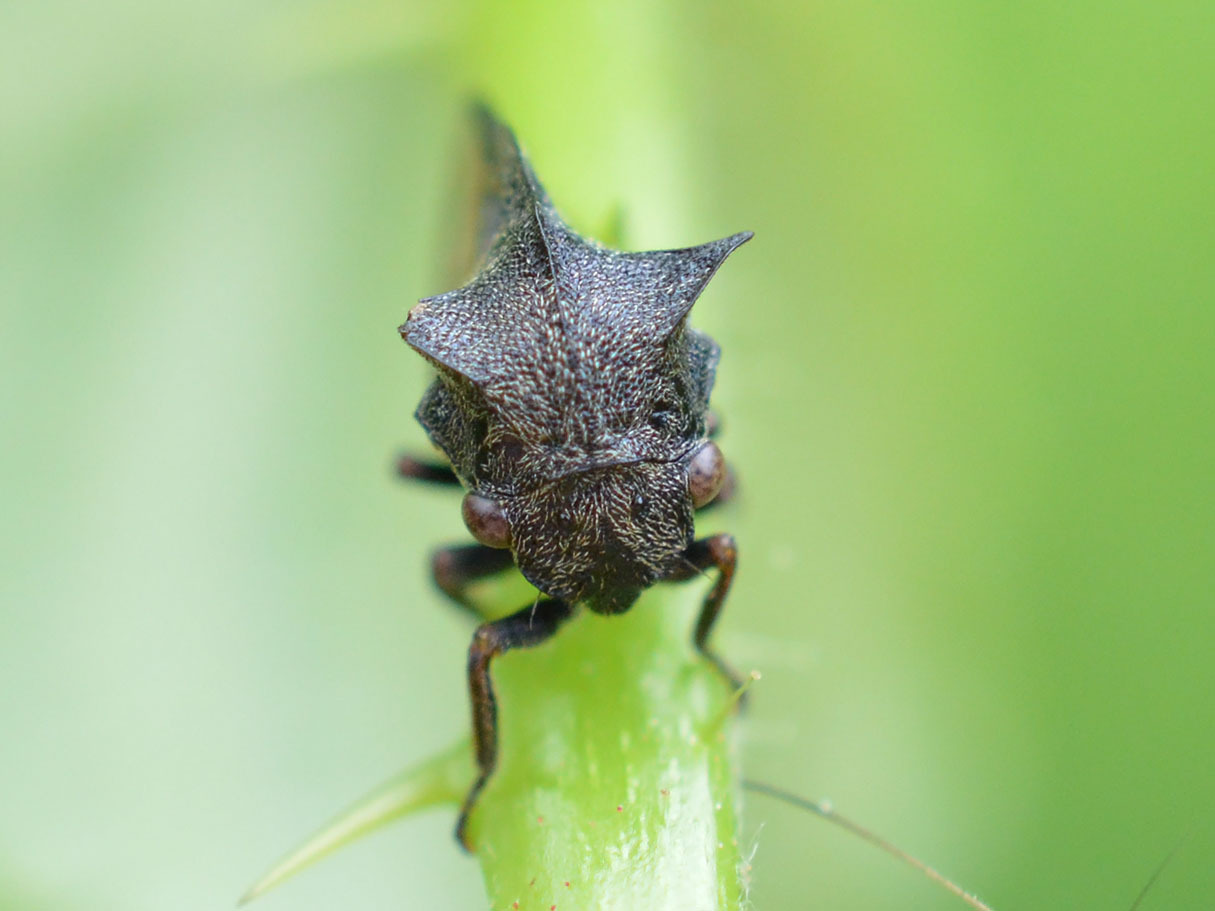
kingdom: Animalia
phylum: Arthropoda
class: Insecta
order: Hemiptera
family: Membracidae
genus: Centrotus
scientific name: Centrotus cornuta
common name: Treehopper
